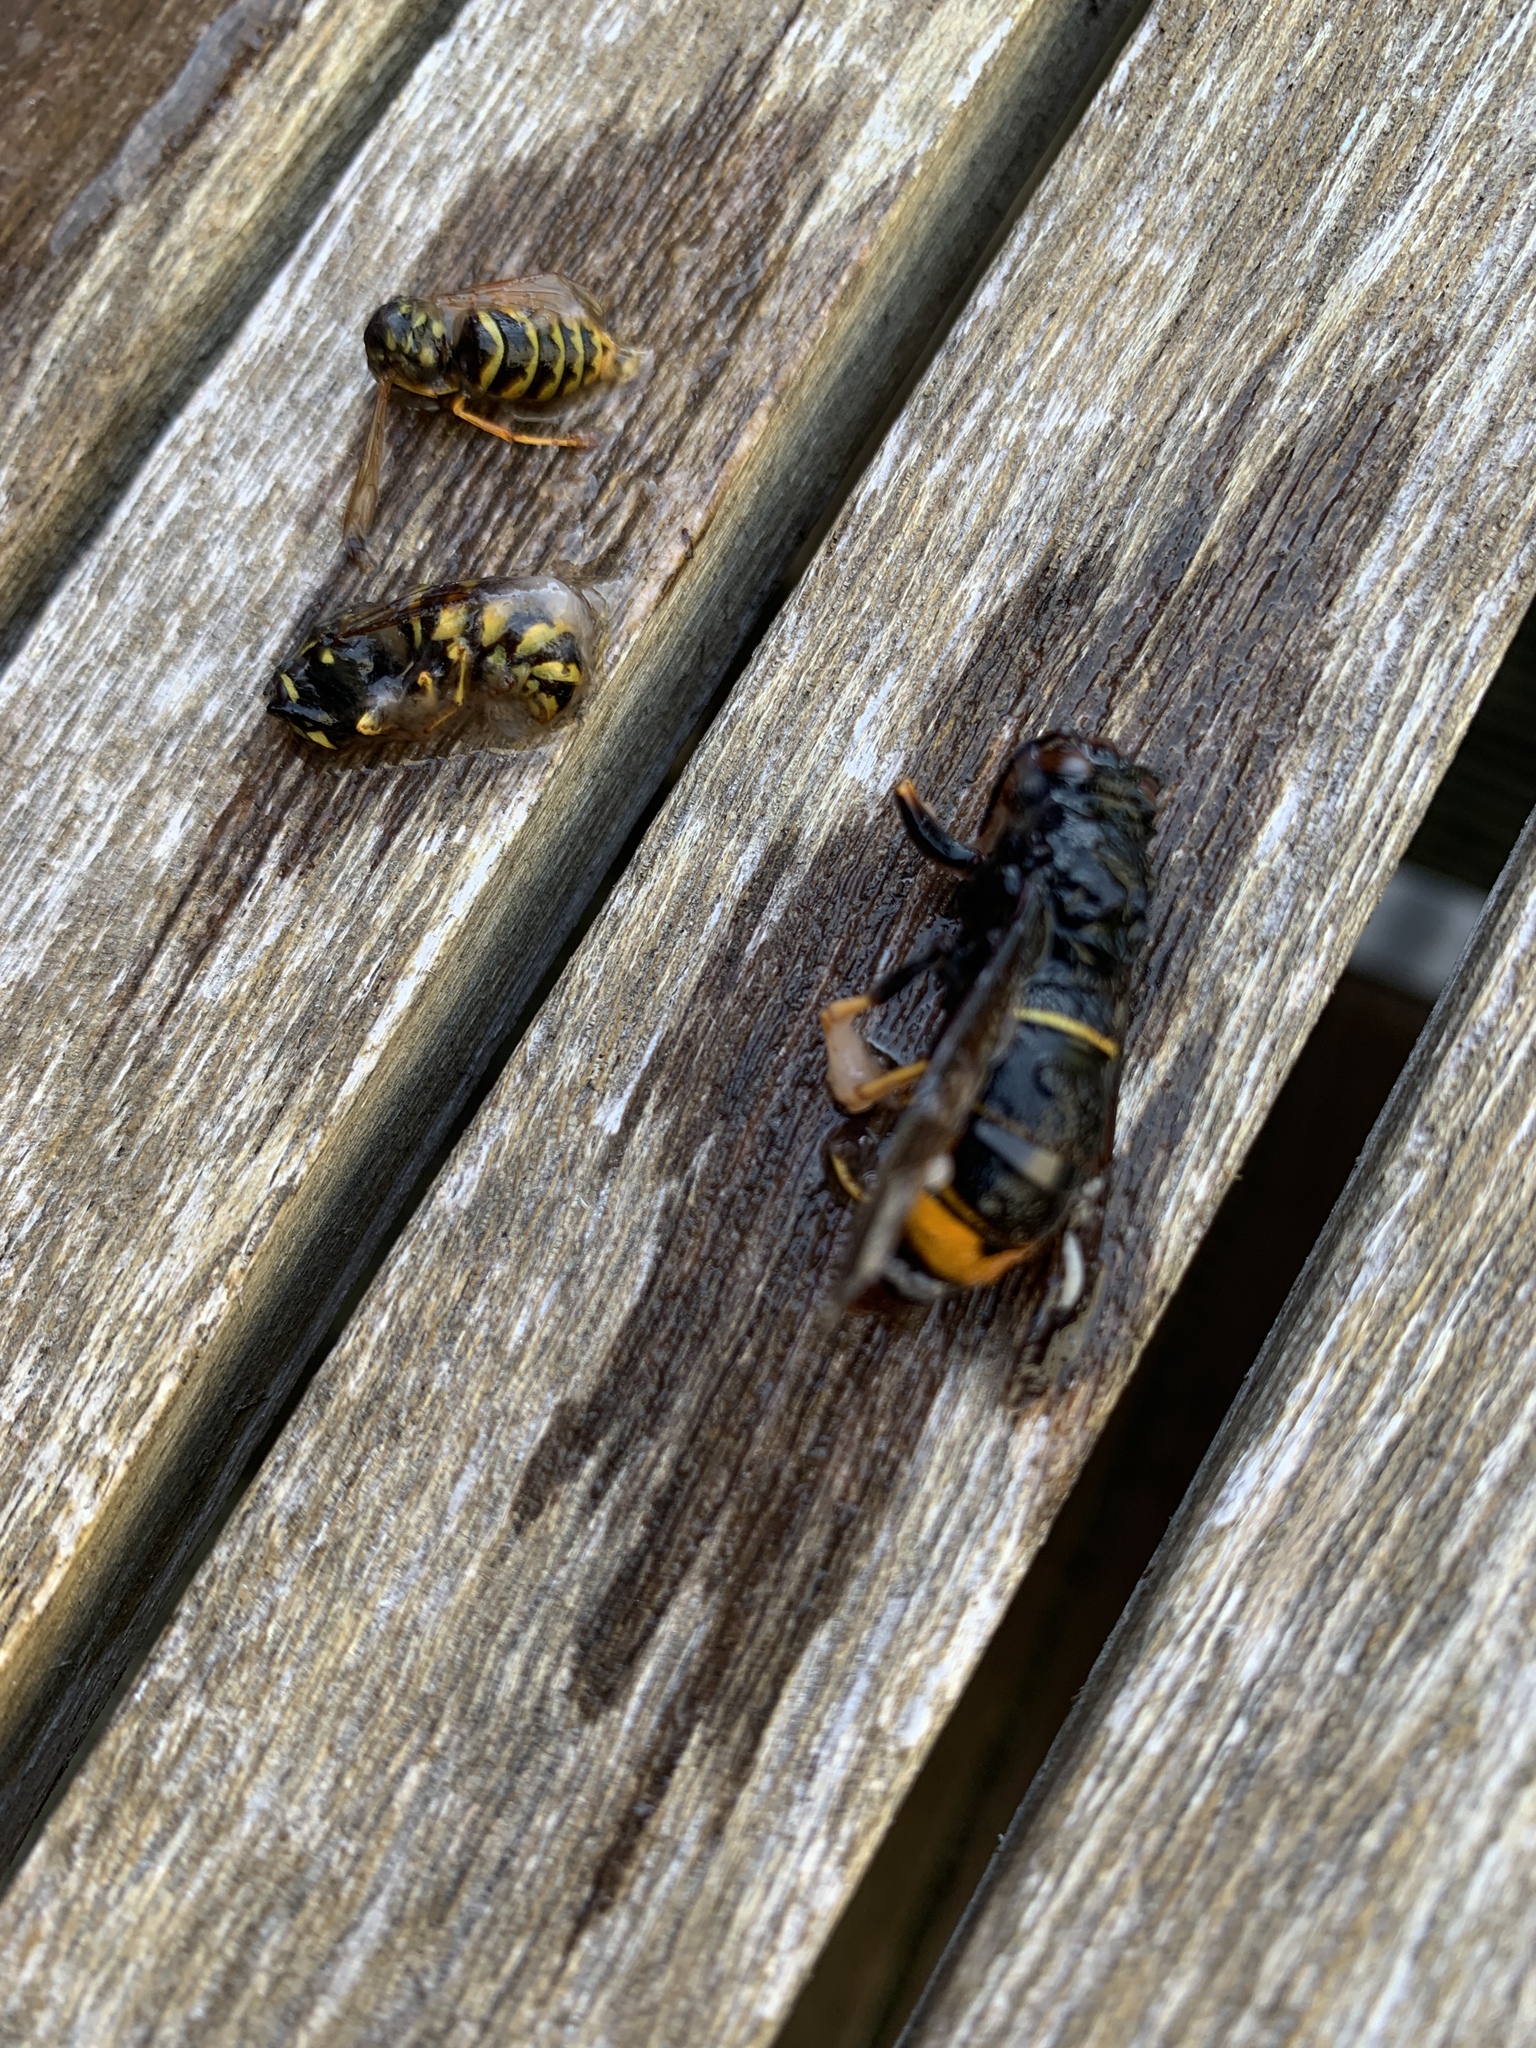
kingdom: Animalia
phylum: Arthropoda
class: Insecta
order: Hymenoptera
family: Vespidae
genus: Vespa
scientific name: Vespa velutina
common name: Asian hornet
